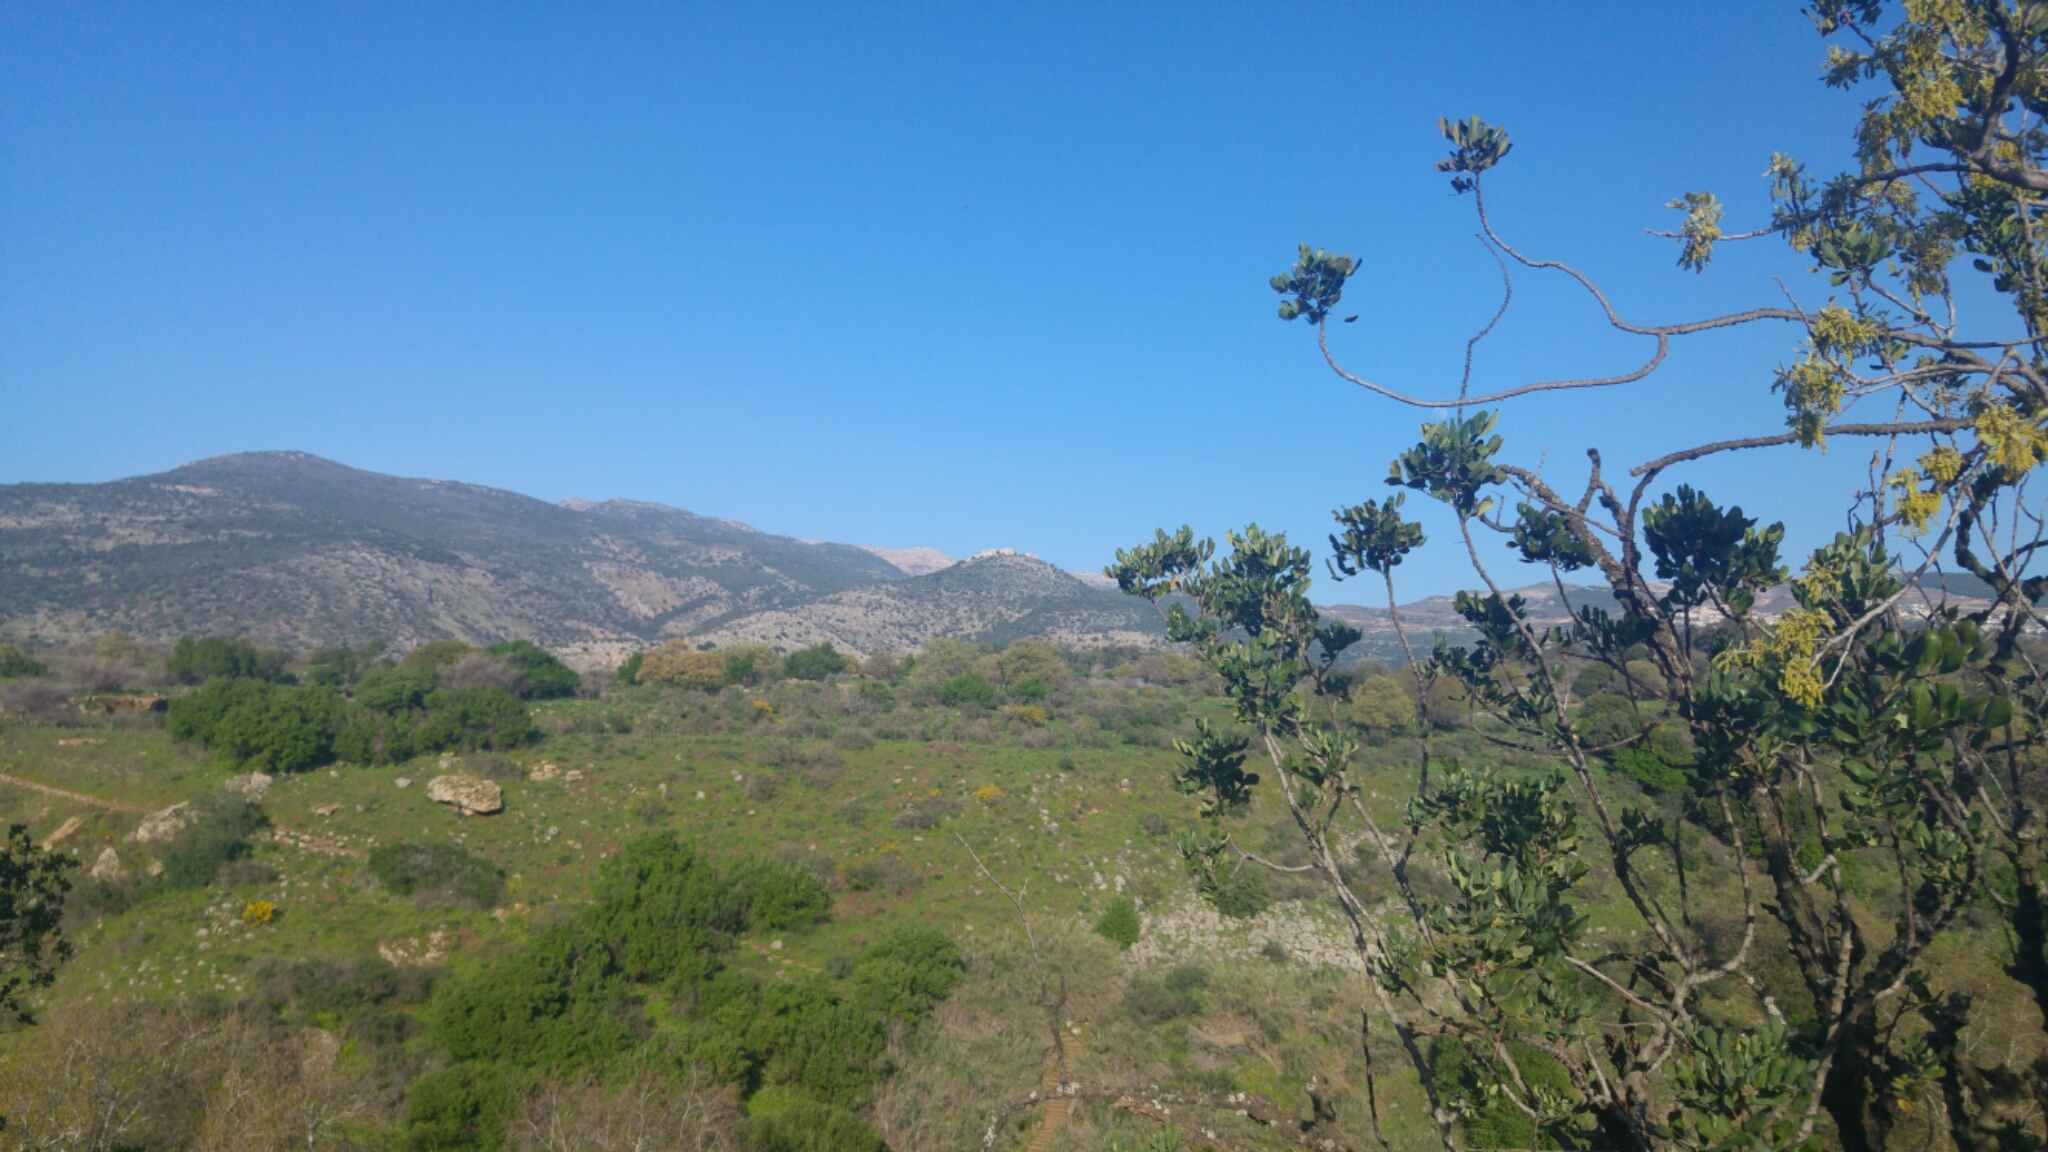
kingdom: Plantae
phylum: Tracheophyta
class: Magnoliopsida
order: Fabales
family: Fabaceae
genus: Ceratonia
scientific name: Ceratonia siliqua
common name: Carob
